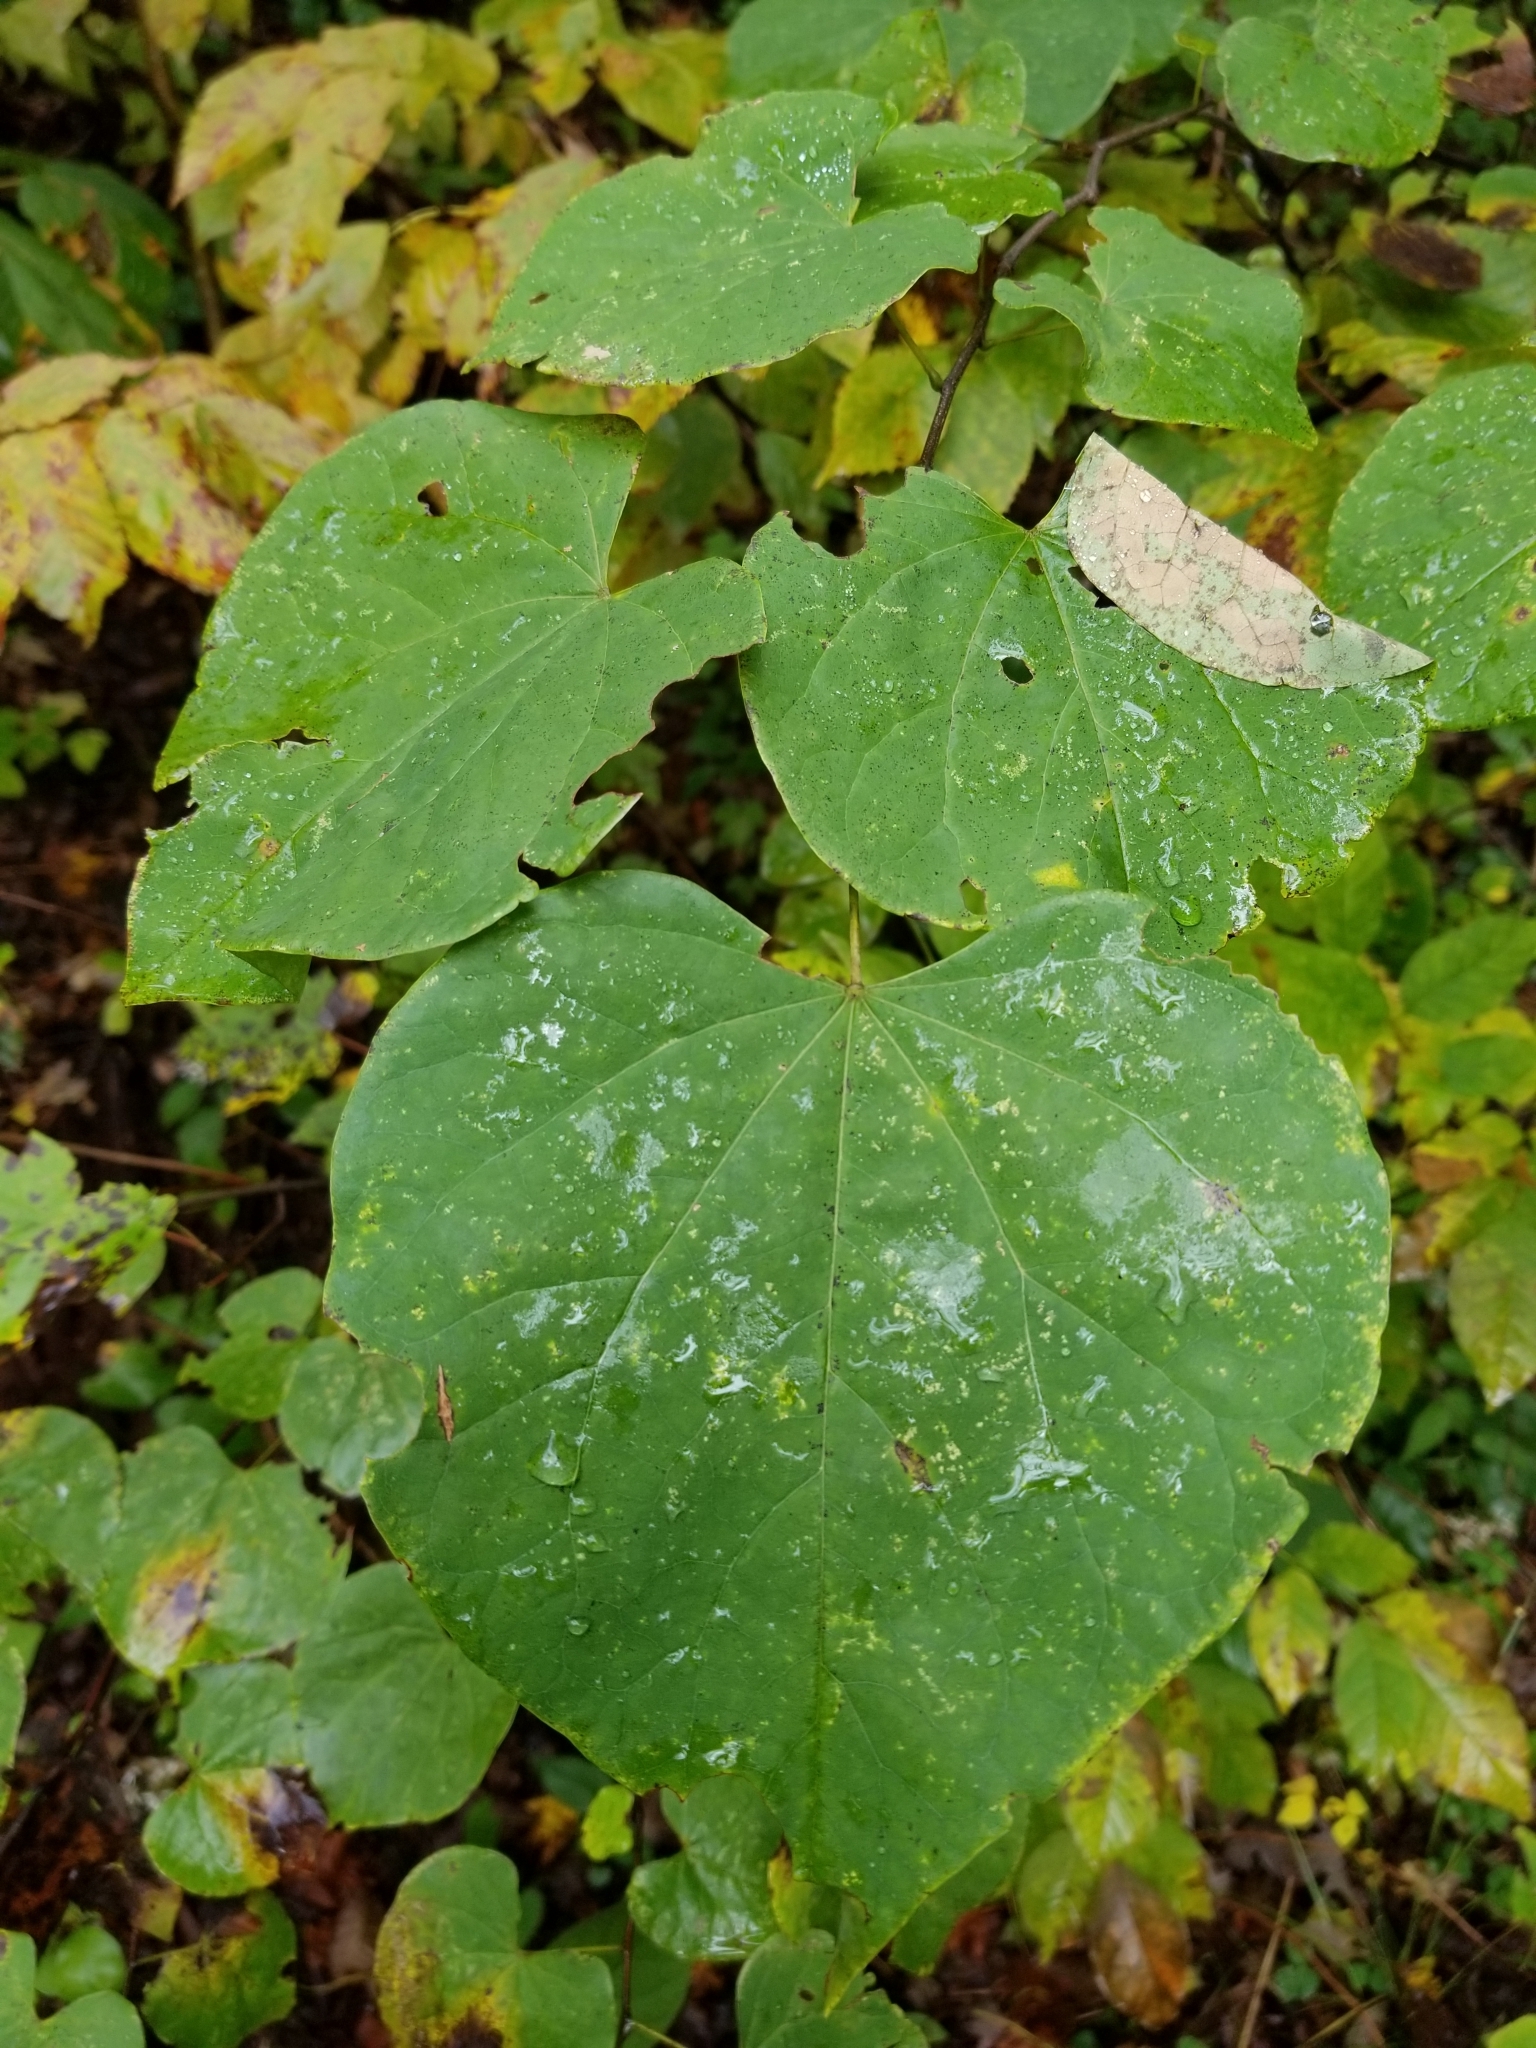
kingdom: Plantae
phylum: Tracheophyta
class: Magnoliopsida
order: Fabales
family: Fabaceae
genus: Cercis
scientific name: Cercis canadensis
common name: Eastern redbud
